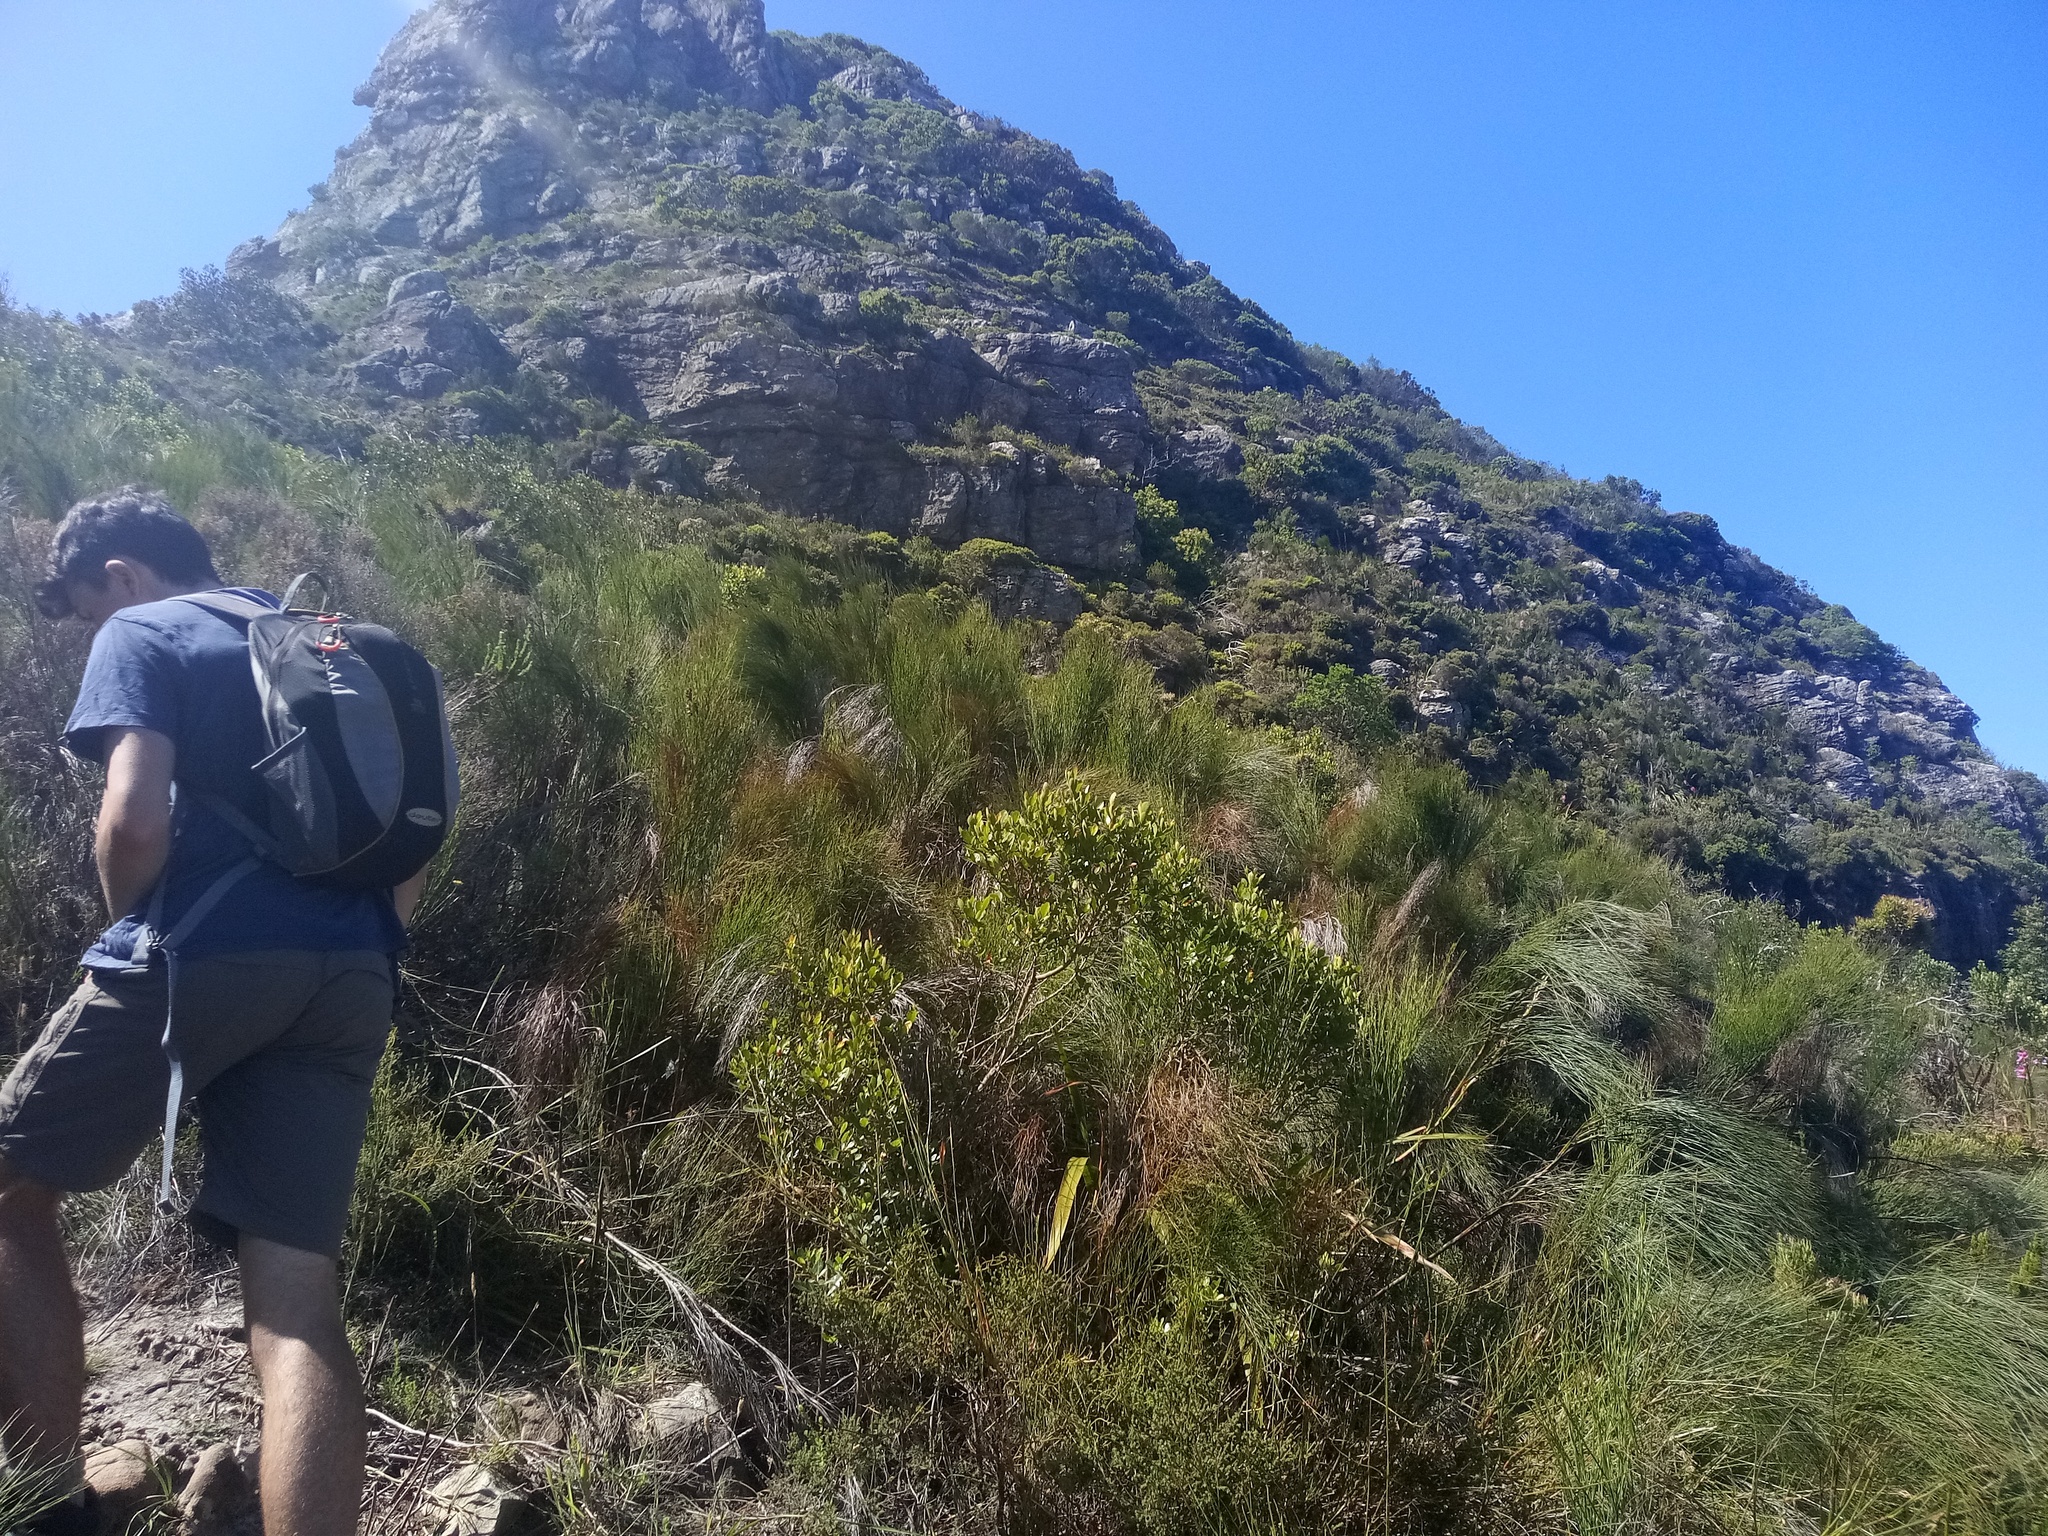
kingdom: Plantae
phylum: Tracheophyta
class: Liliopsida
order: Poales
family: Restionaceae
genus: Cannomois
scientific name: Cannomois virgata
